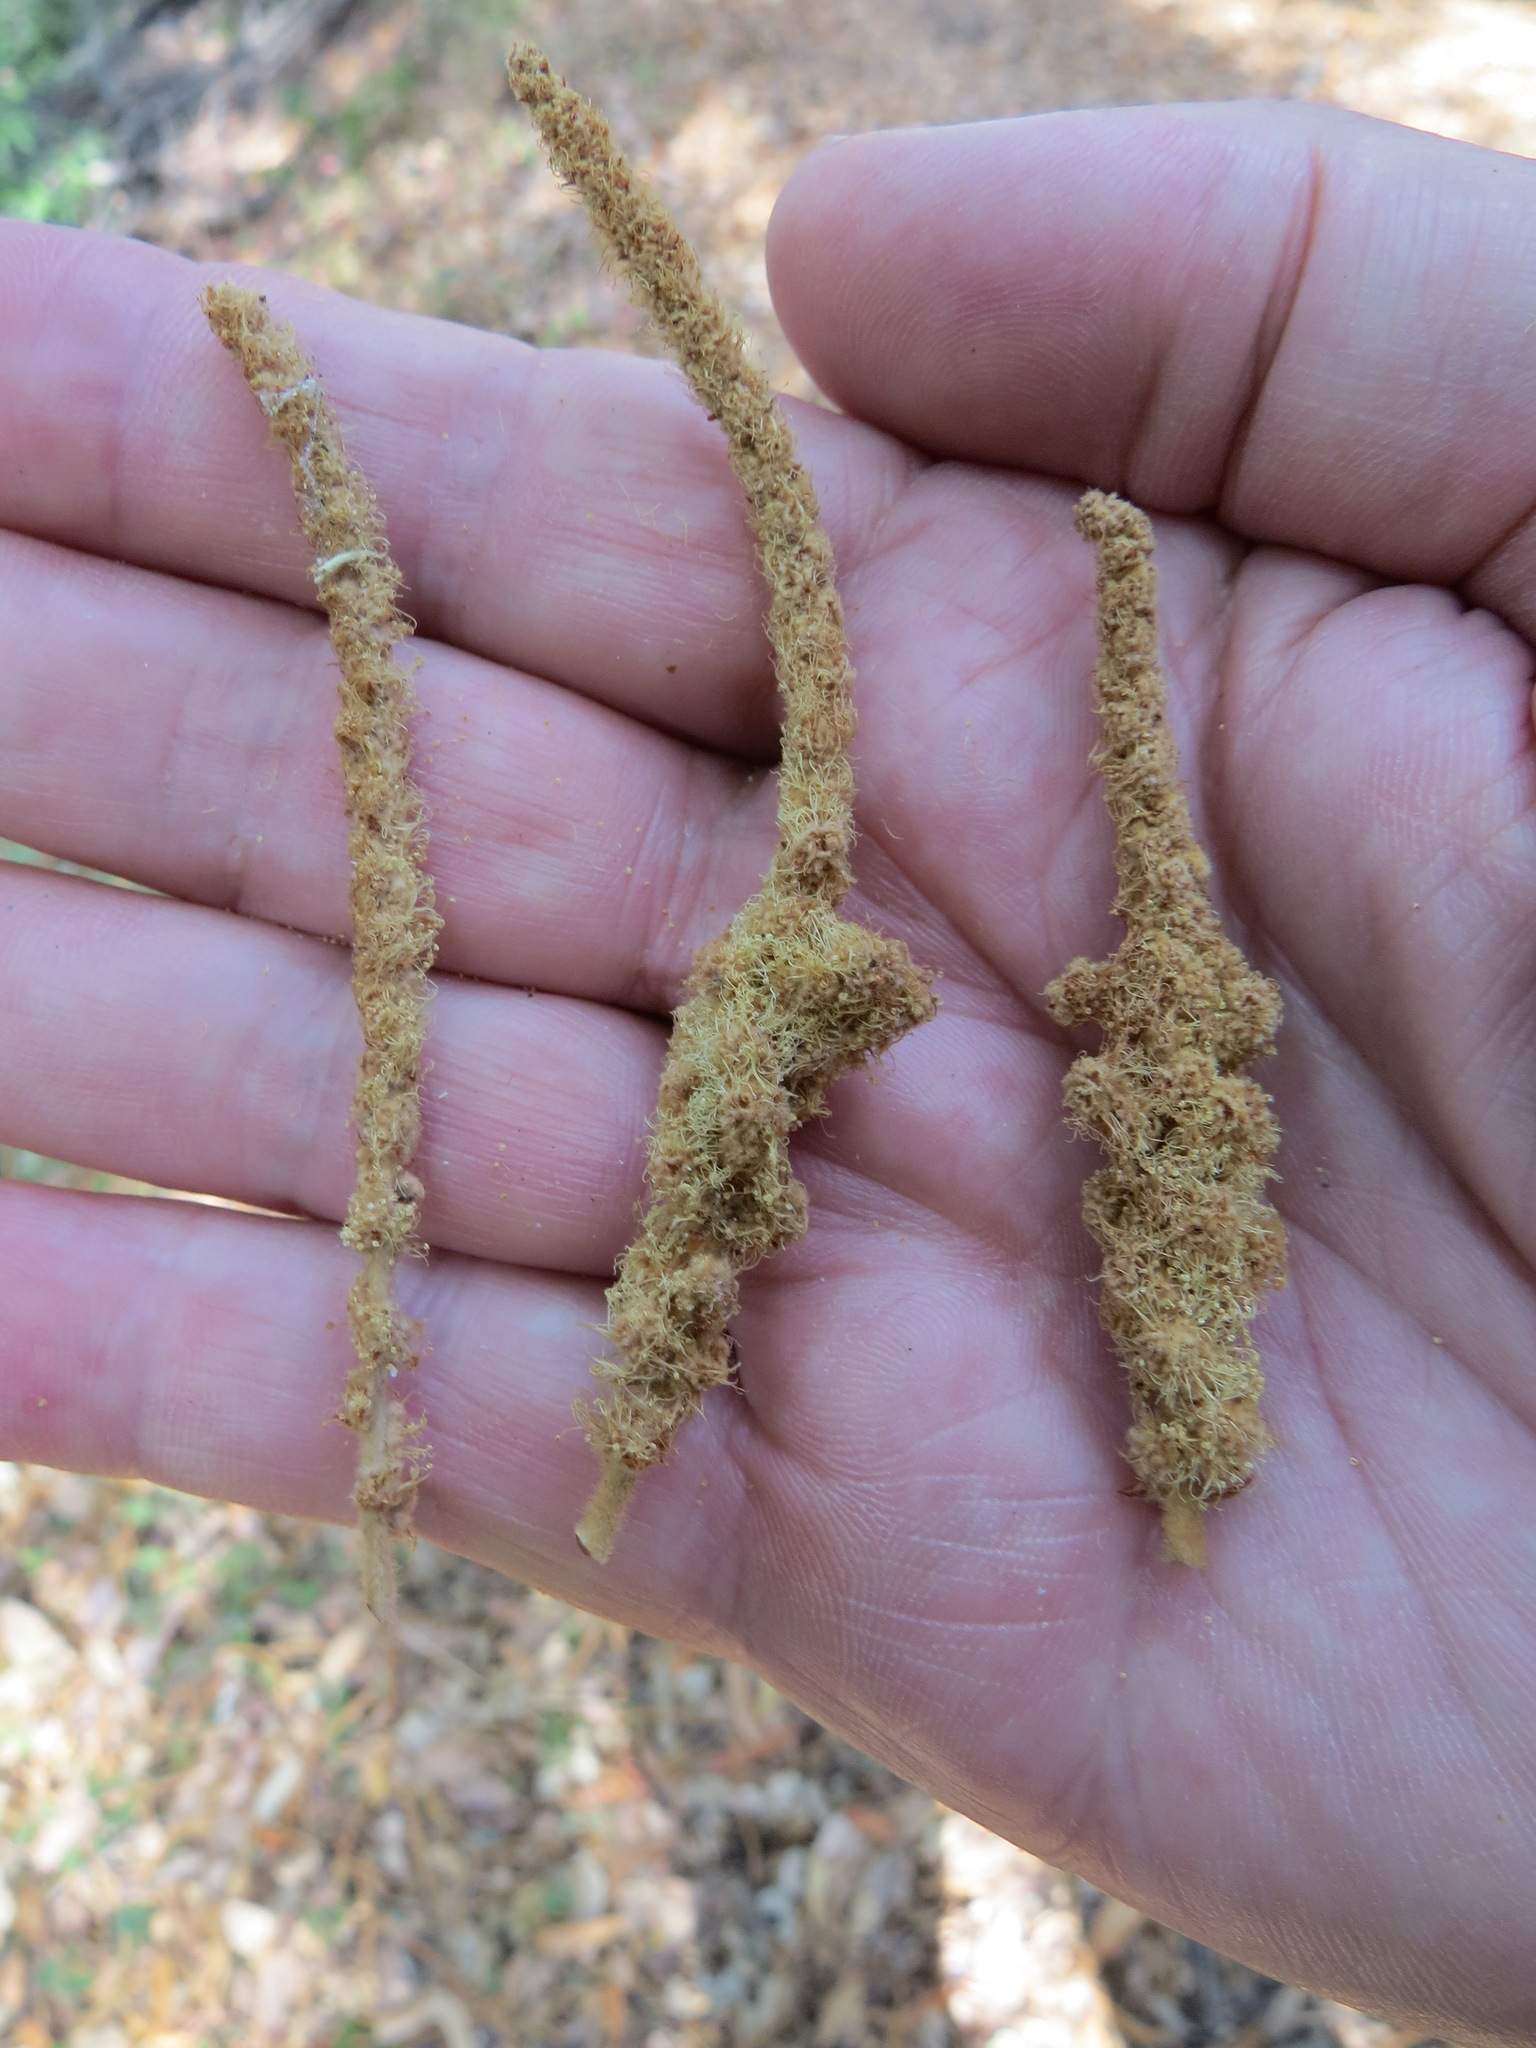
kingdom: Animalia
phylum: Arthropoda
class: Insecta
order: Diptera
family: Cecidomyiidae
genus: Dasineura
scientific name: Dasineura
